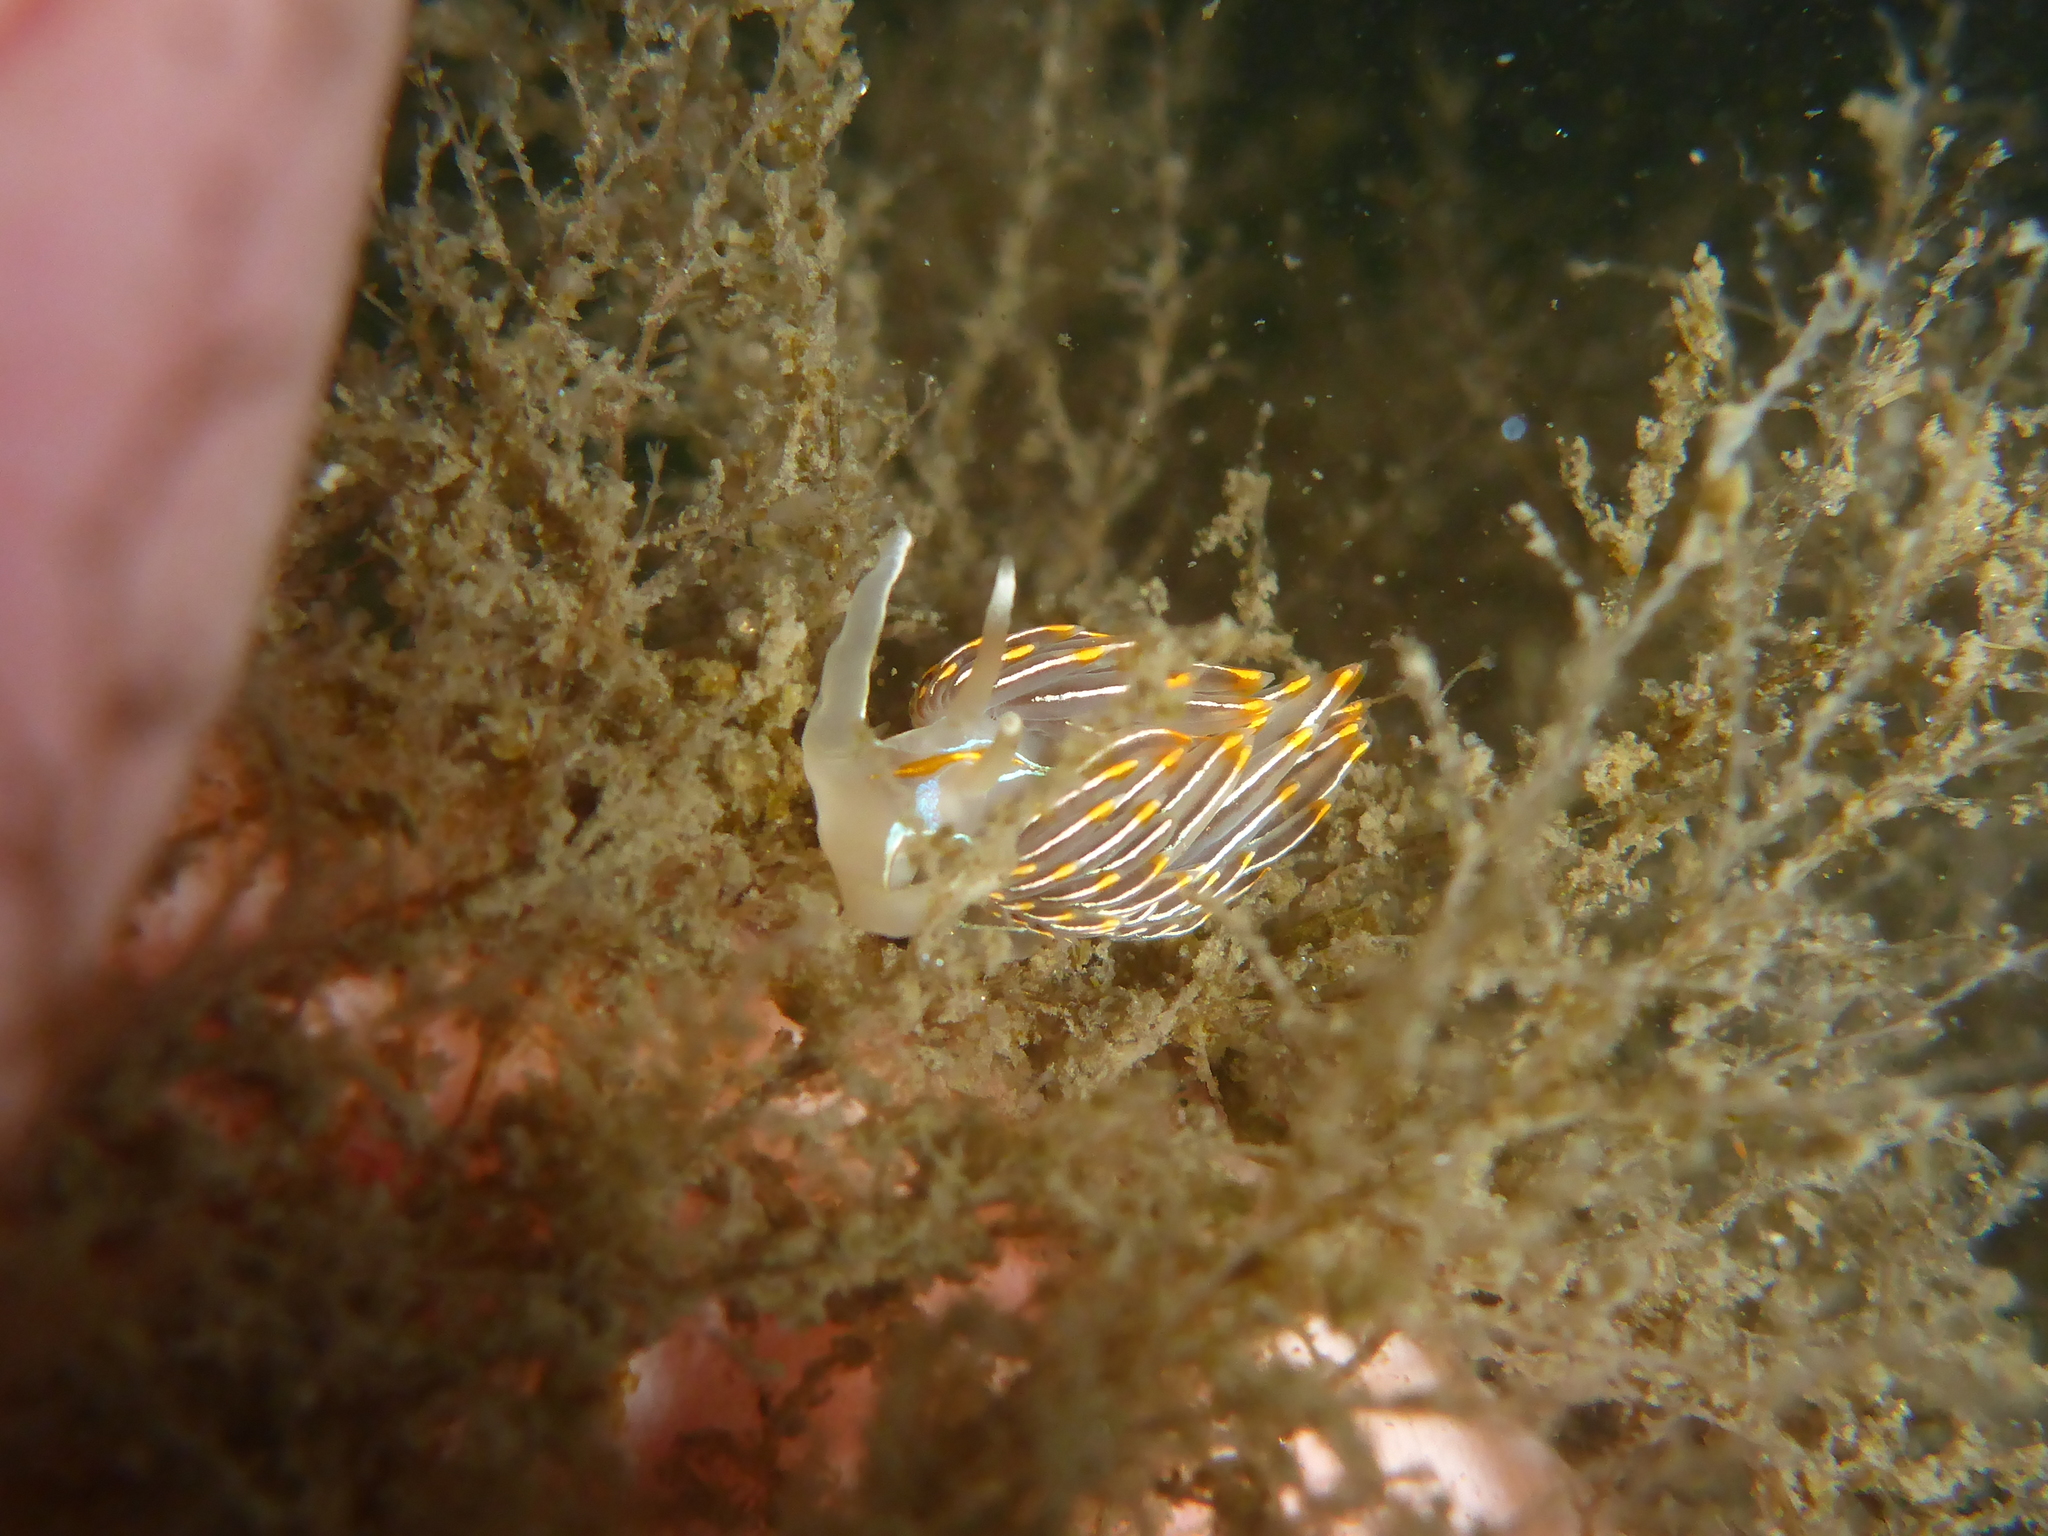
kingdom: Animalia
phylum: Mollusca
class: Gastropoda
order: Nudibranchia
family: Myrrhinidae
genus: Hermissenda
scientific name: Hermissenda crassicornis
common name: Hermissenda
